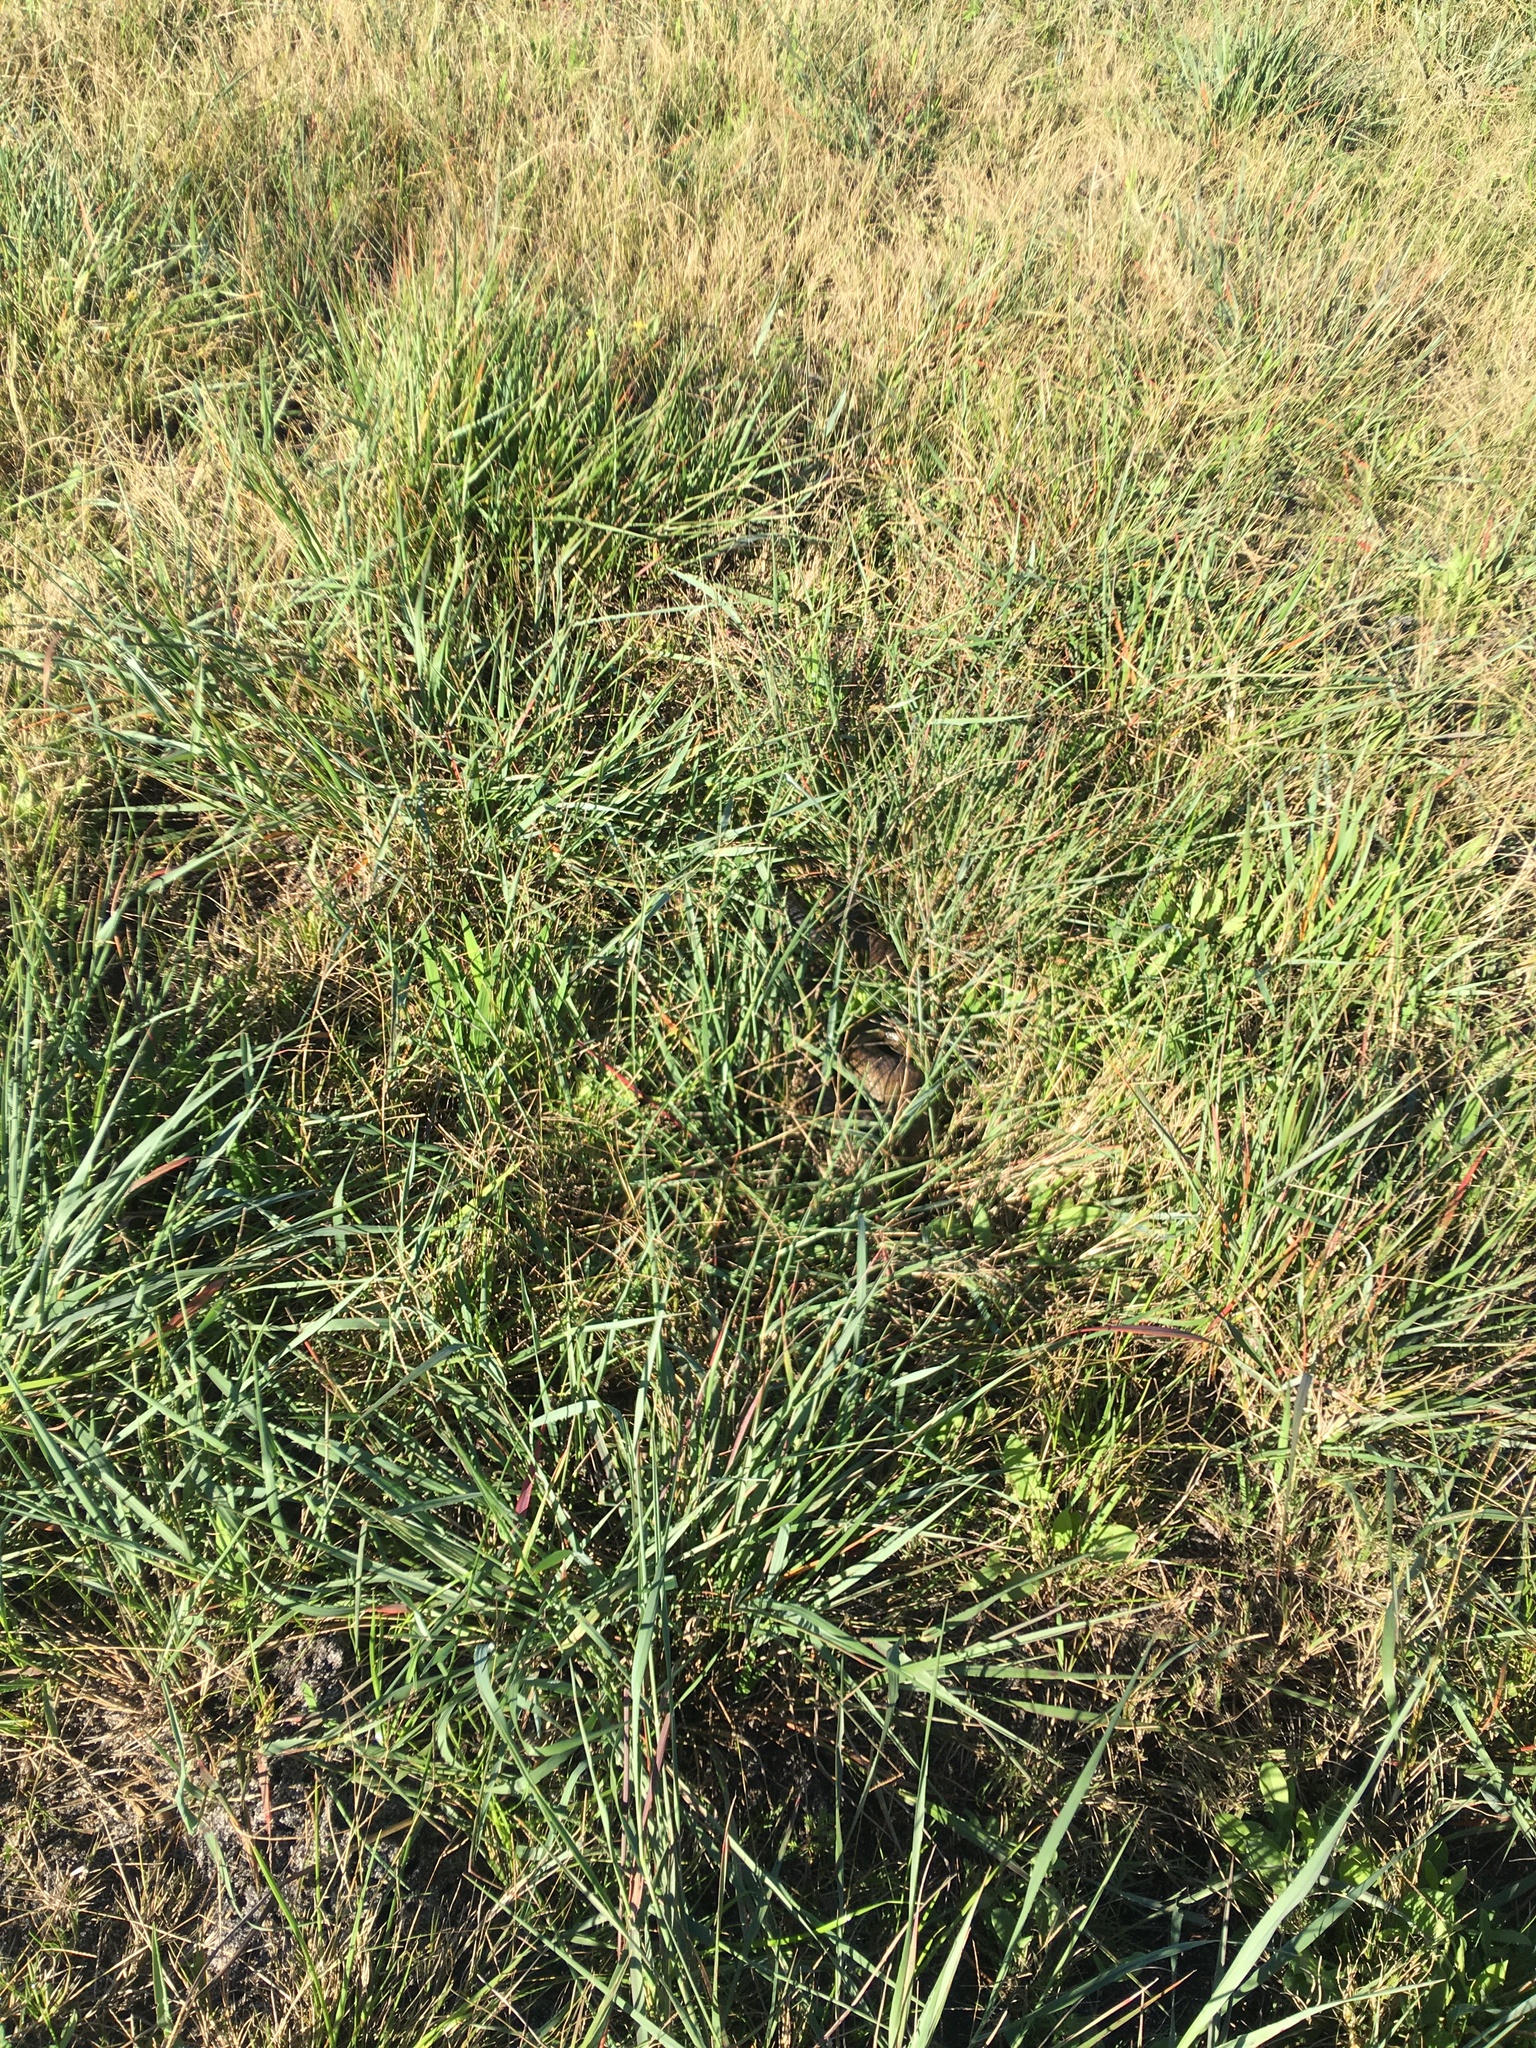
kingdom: Animalia
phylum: Chordata
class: Squamata
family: Pseudaspididae
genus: Pseudaspis
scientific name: Pseudaspis cana
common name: Mole snake
